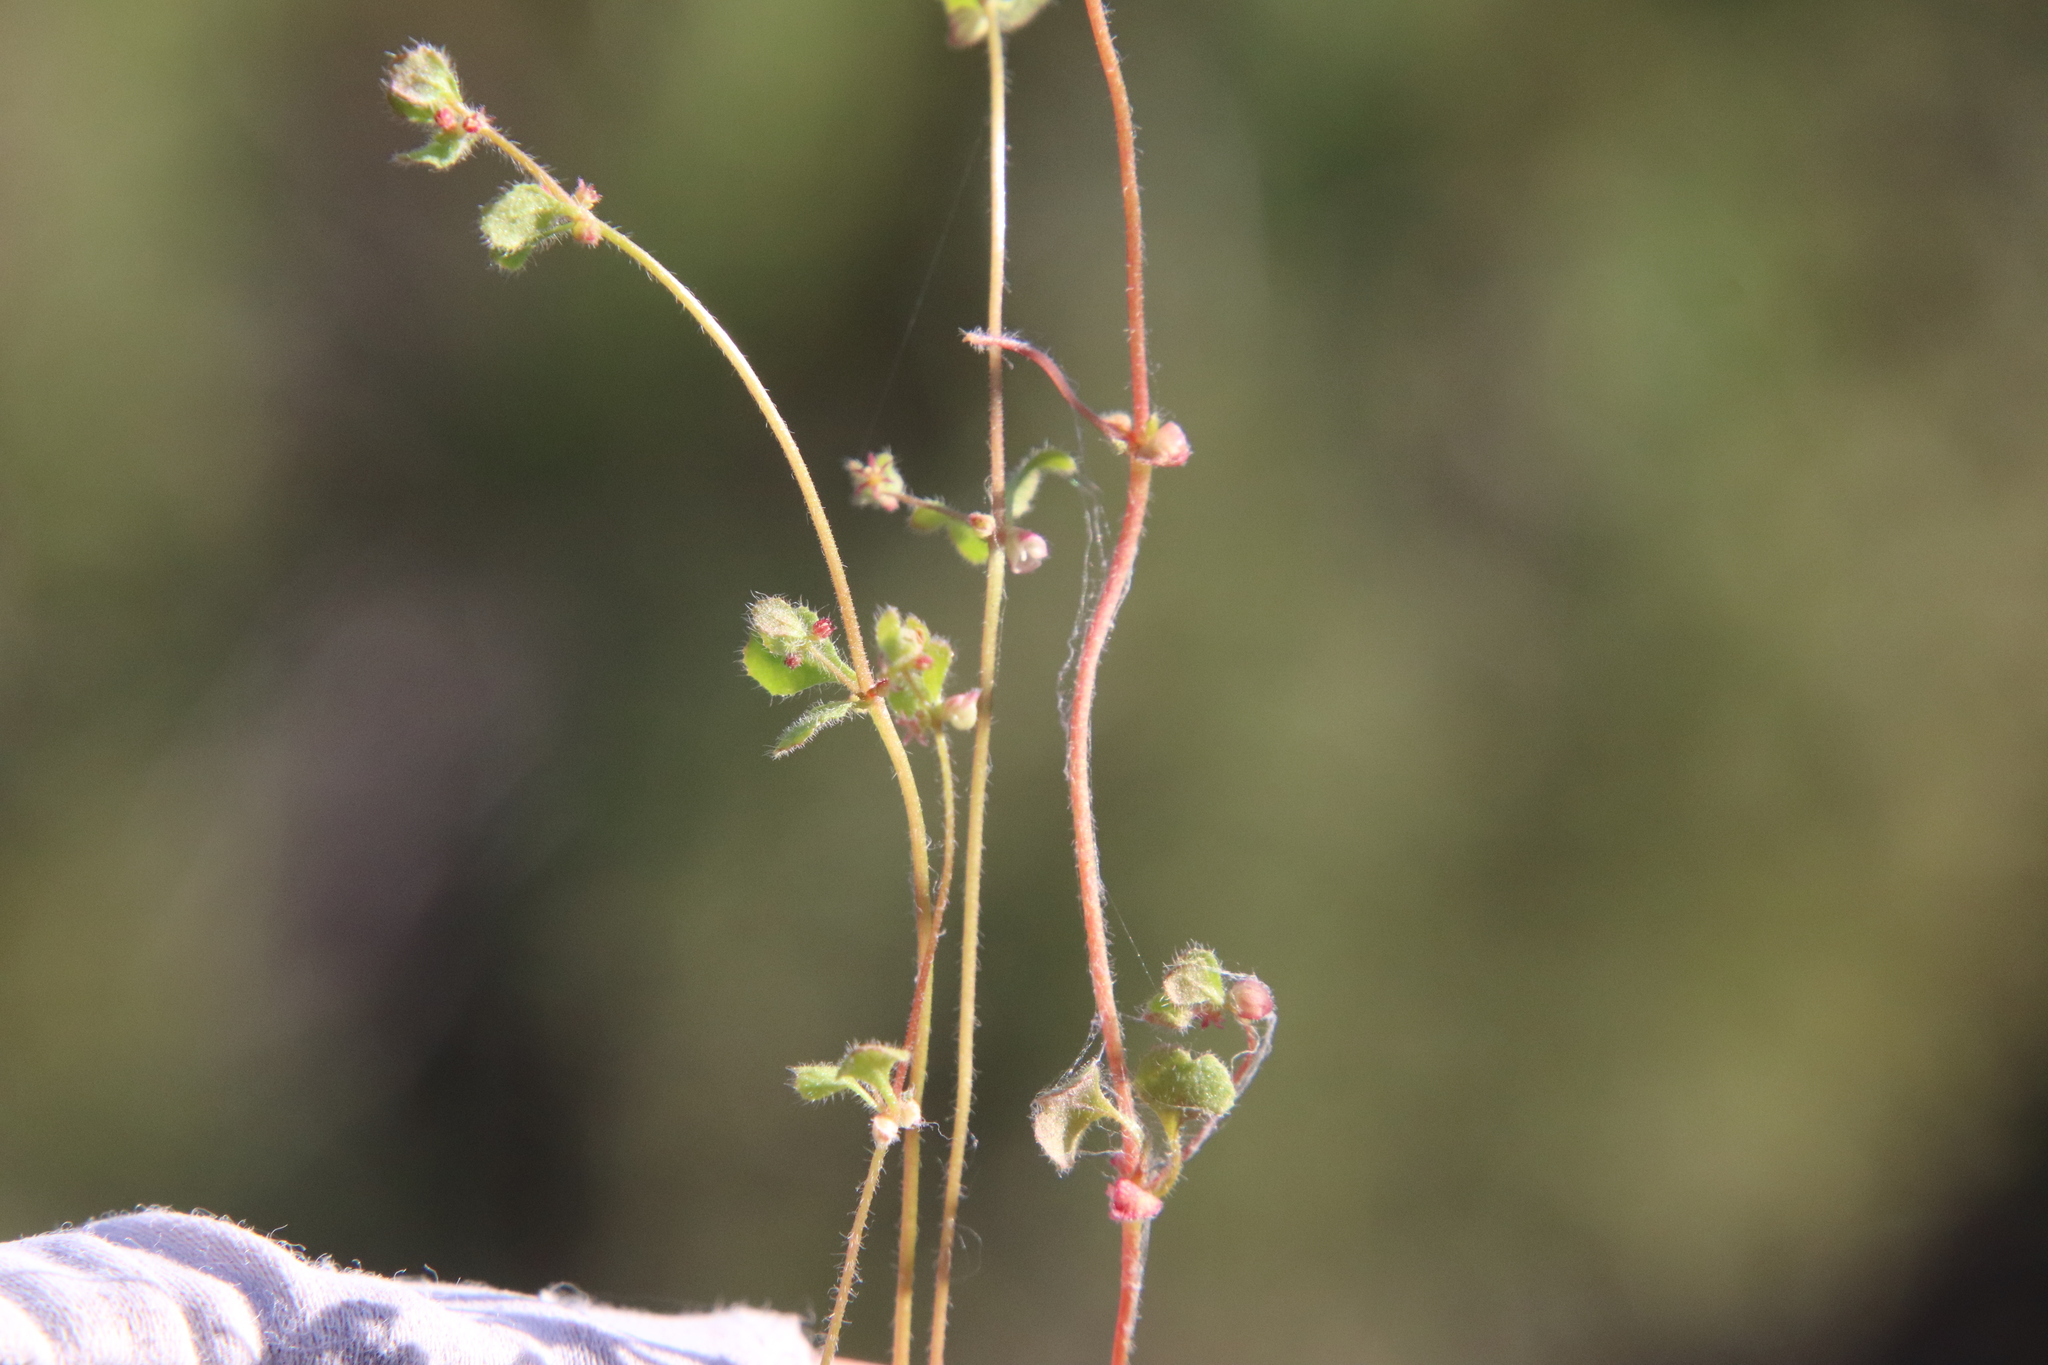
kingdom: Plantae
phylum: Tracheophyta
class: Magnoliopsida
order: Caryophyllales
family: Polygonaceae
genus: Pterostegia
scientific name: Pterostegia drymarioides
